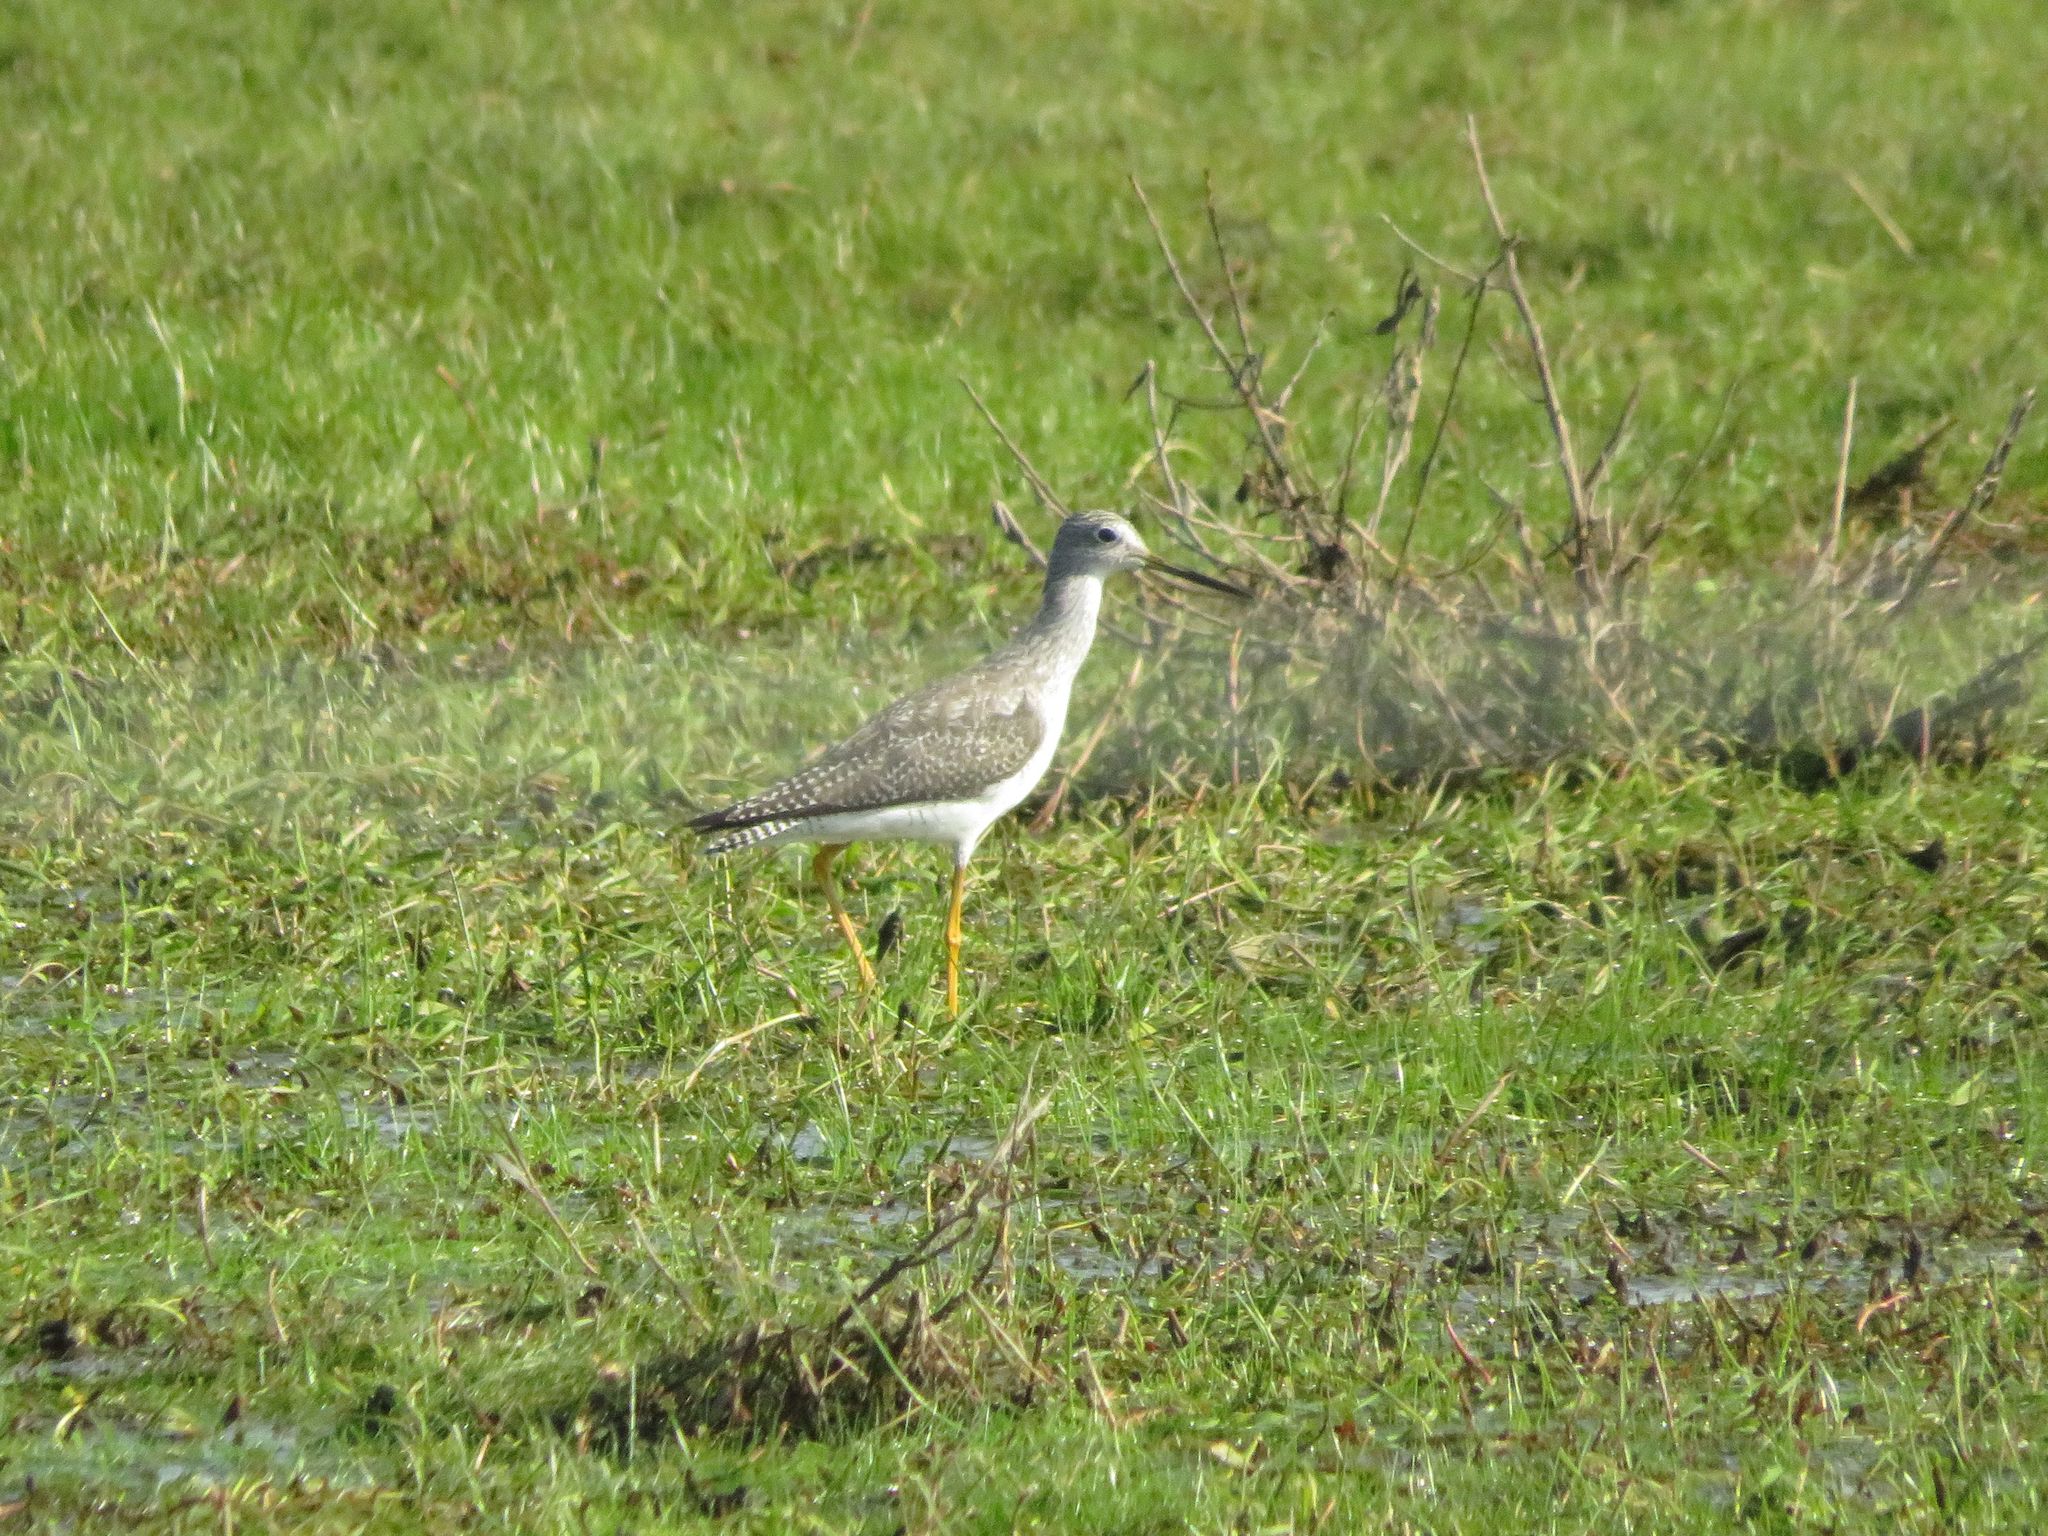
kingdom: Animalia
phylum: Chordata
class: Aves
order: Charadriiformes
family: Scolopacidae
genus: Tringa
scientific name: Tringa melanoleuca
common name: Greater yellowlegs
